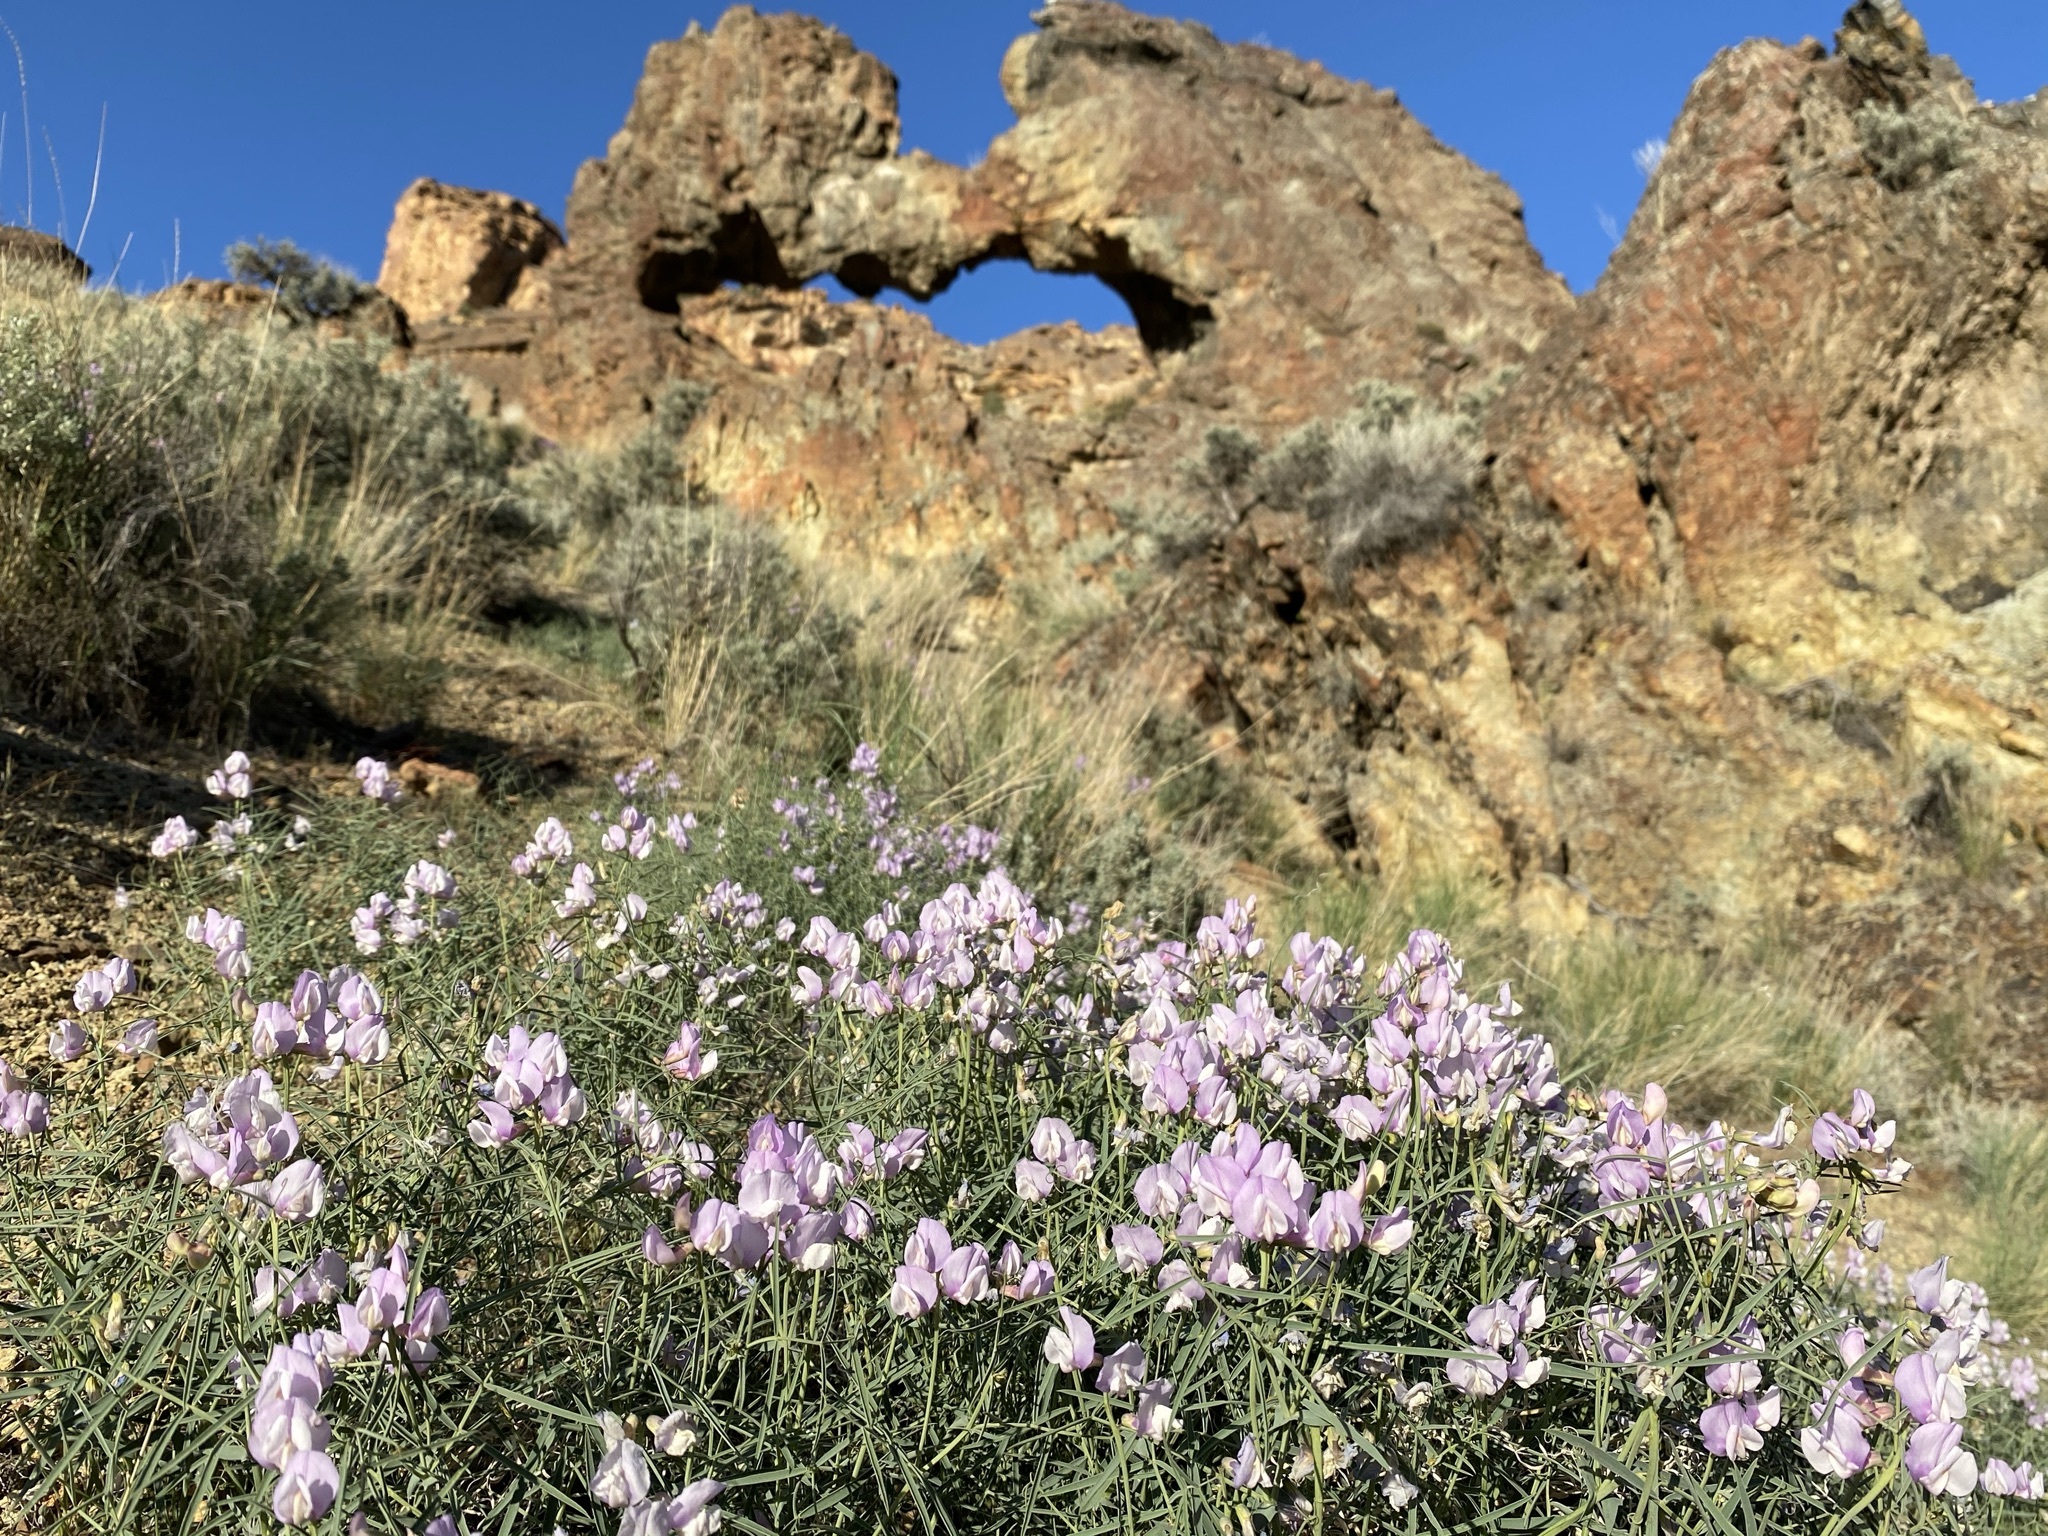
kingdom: Plantae
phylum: Tracheophyta
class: Magnoliopsida
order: Fabales
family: Fabaceae
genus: Lathyrus
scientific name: Lathyrus pauciflorus
